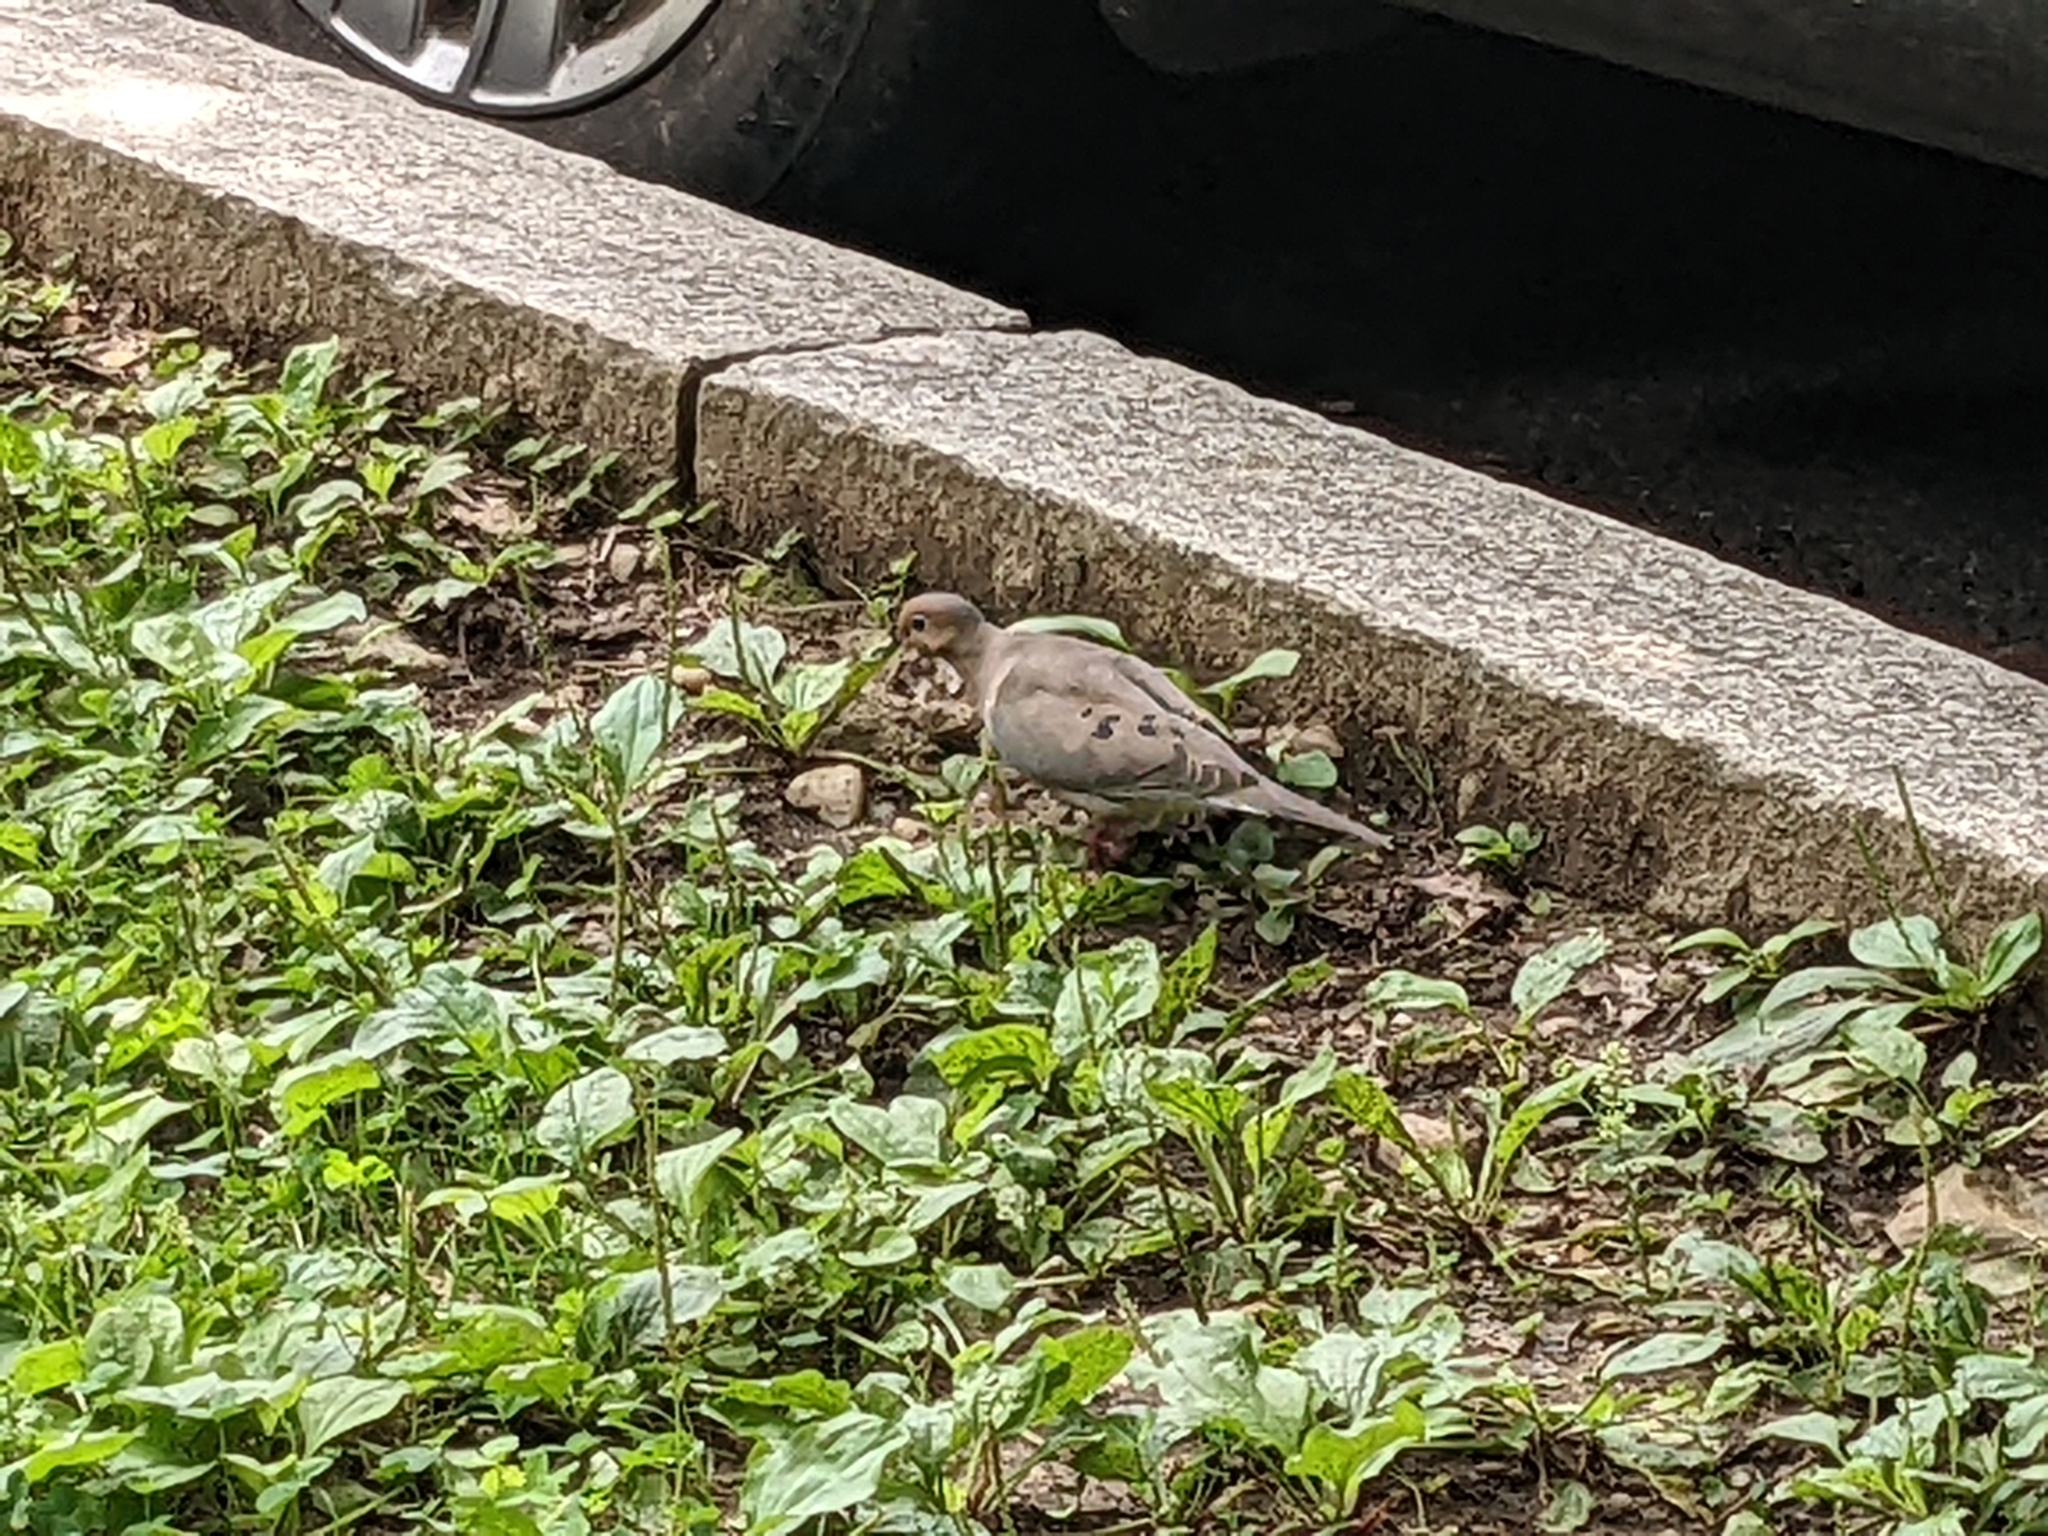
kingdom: Animalia
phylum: Chordata
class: Aves
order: Columbiformes
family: Columbidae
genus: Zenaida
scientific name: Zenaida macroura
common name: Mourning dove
